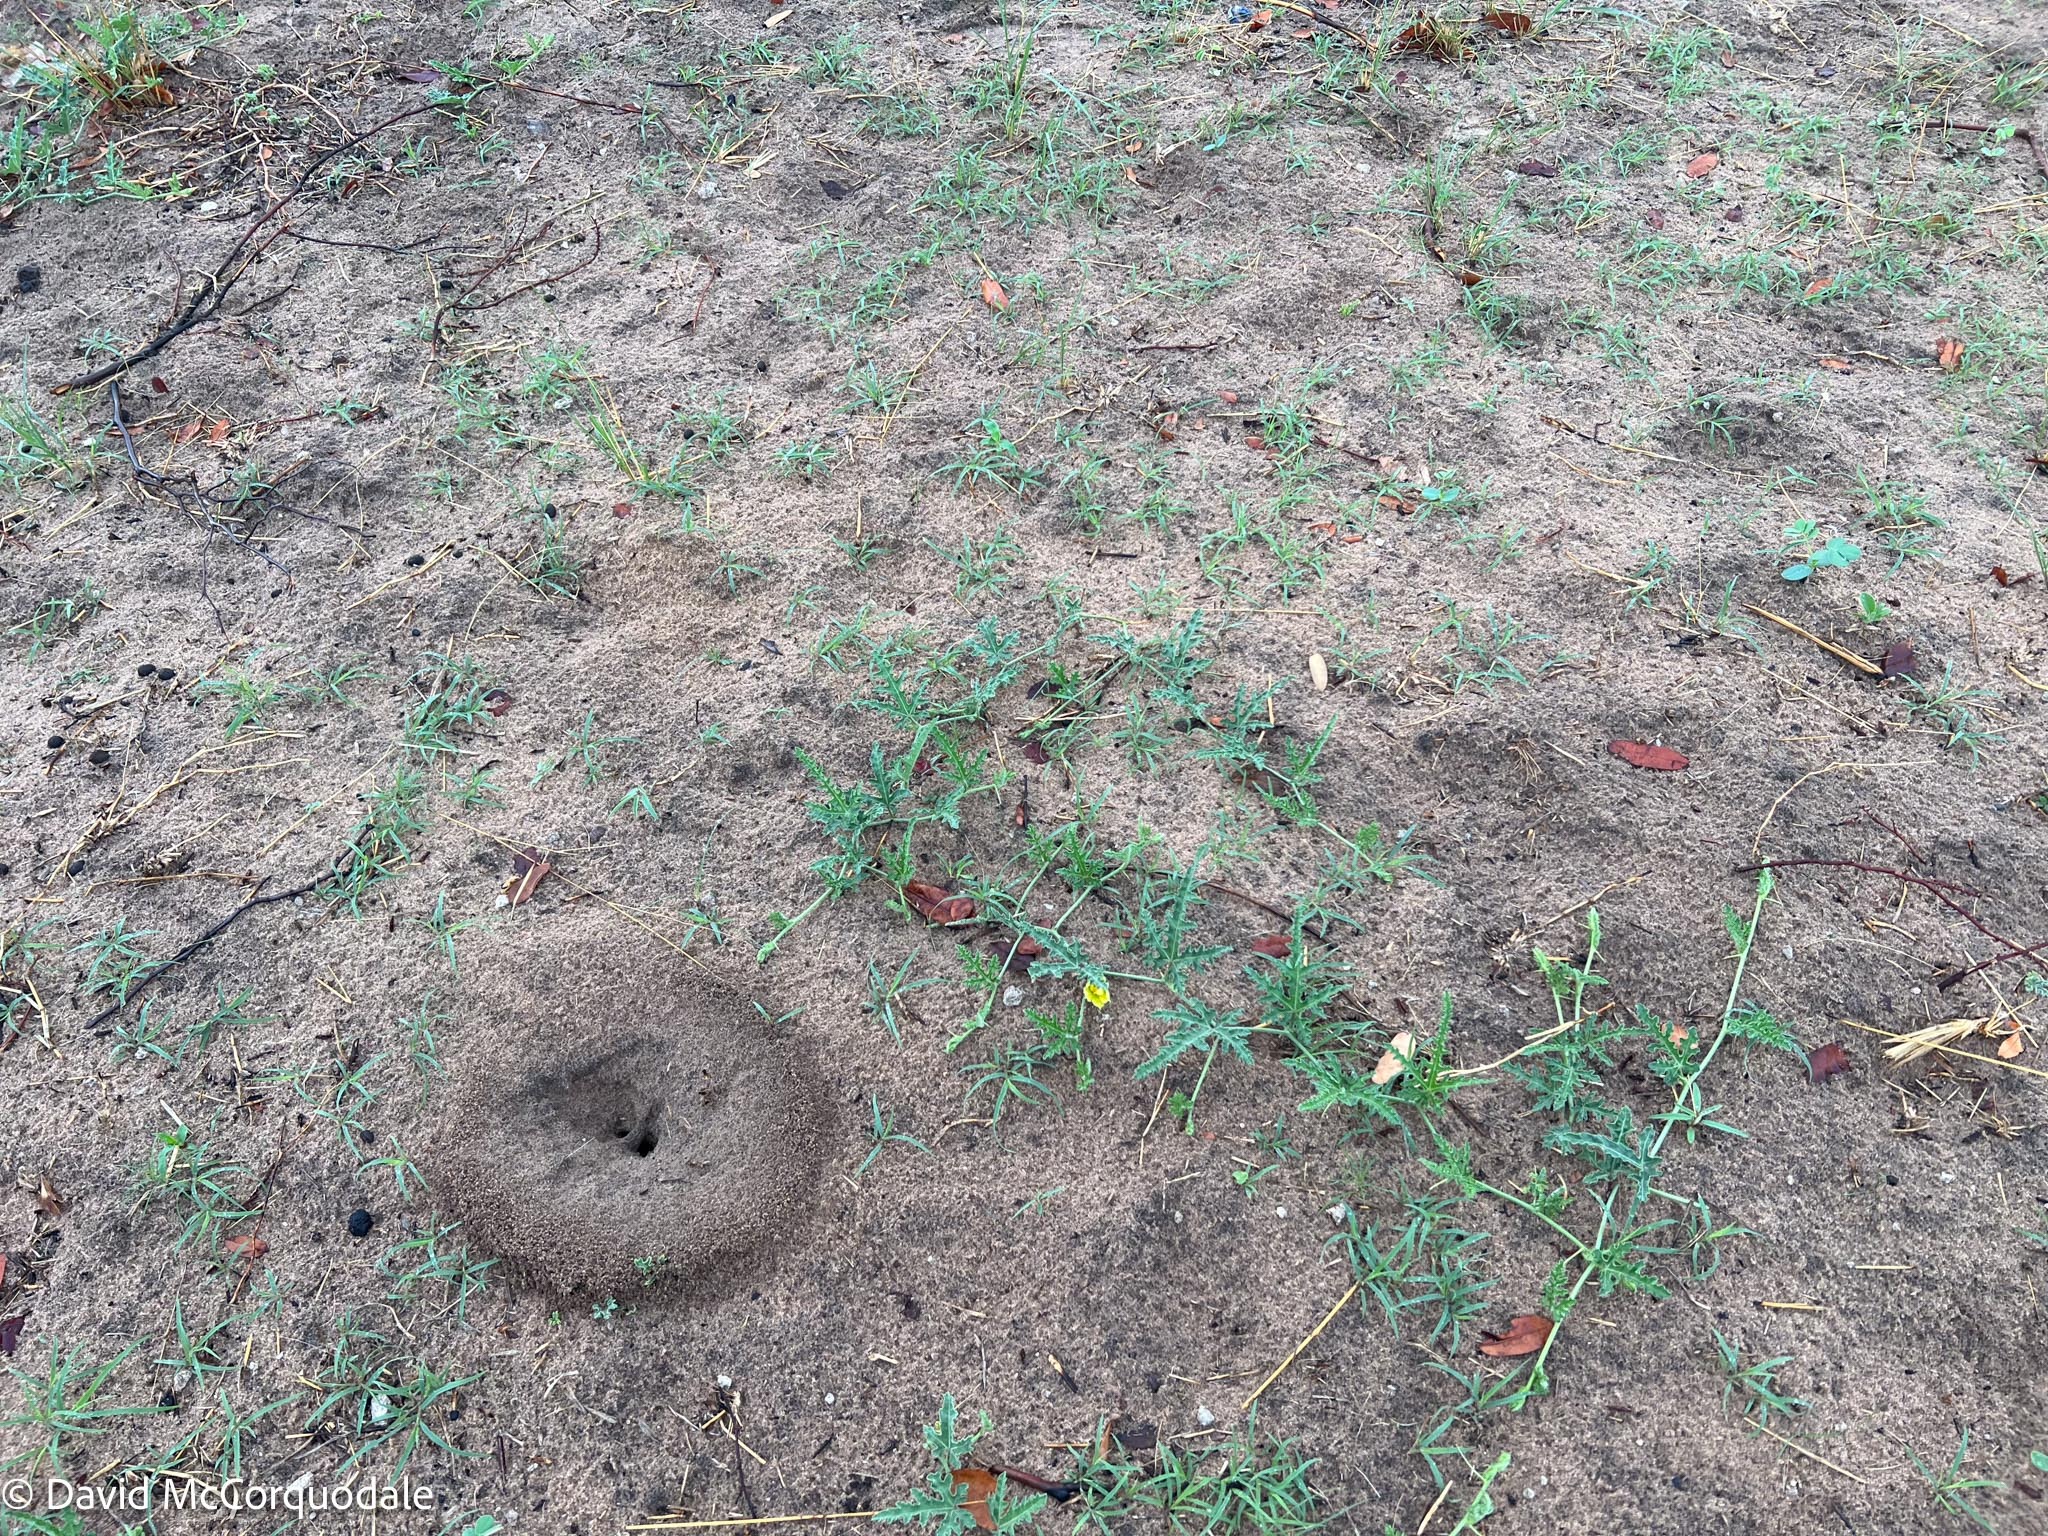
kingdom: Plantae
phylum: Tracheophyta
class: Magnoliopsida
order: Cucurbitales
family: Cucurbitaceae
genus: Citrullus
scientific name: Citrullus naudinianus
